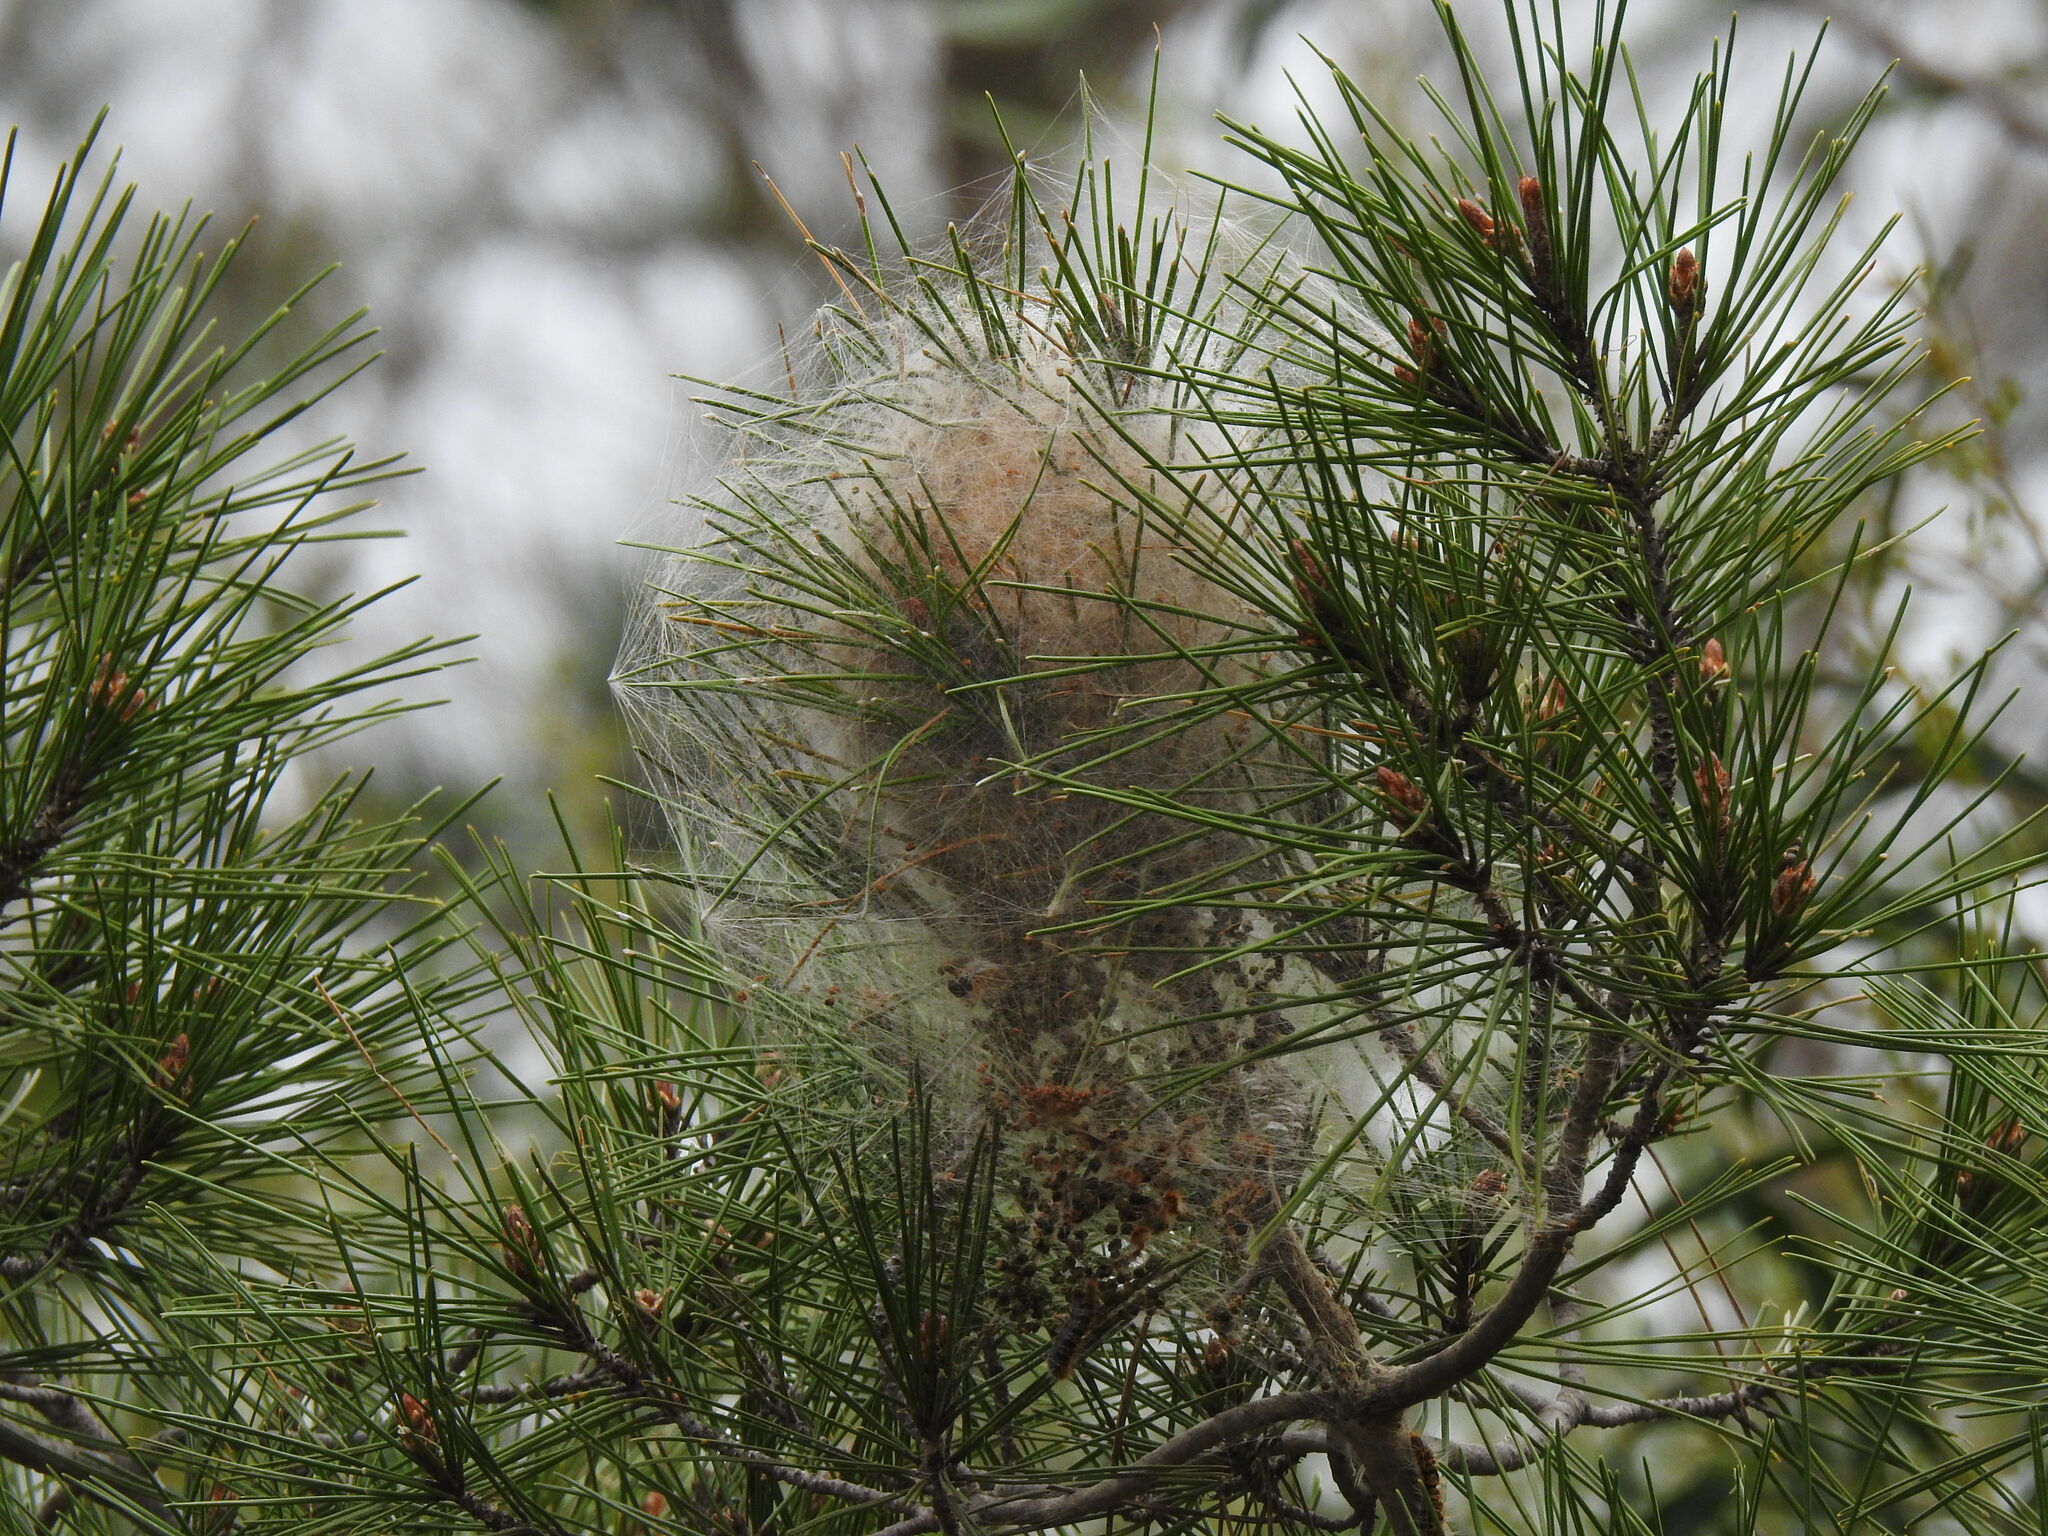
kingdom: Animalia
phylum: Arthropoda
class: Insecta
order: Lepidoptera
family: Notodontidae
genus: Thaumetopoea
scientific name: Thaumetopoea pityocampa
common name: Pine processionary
